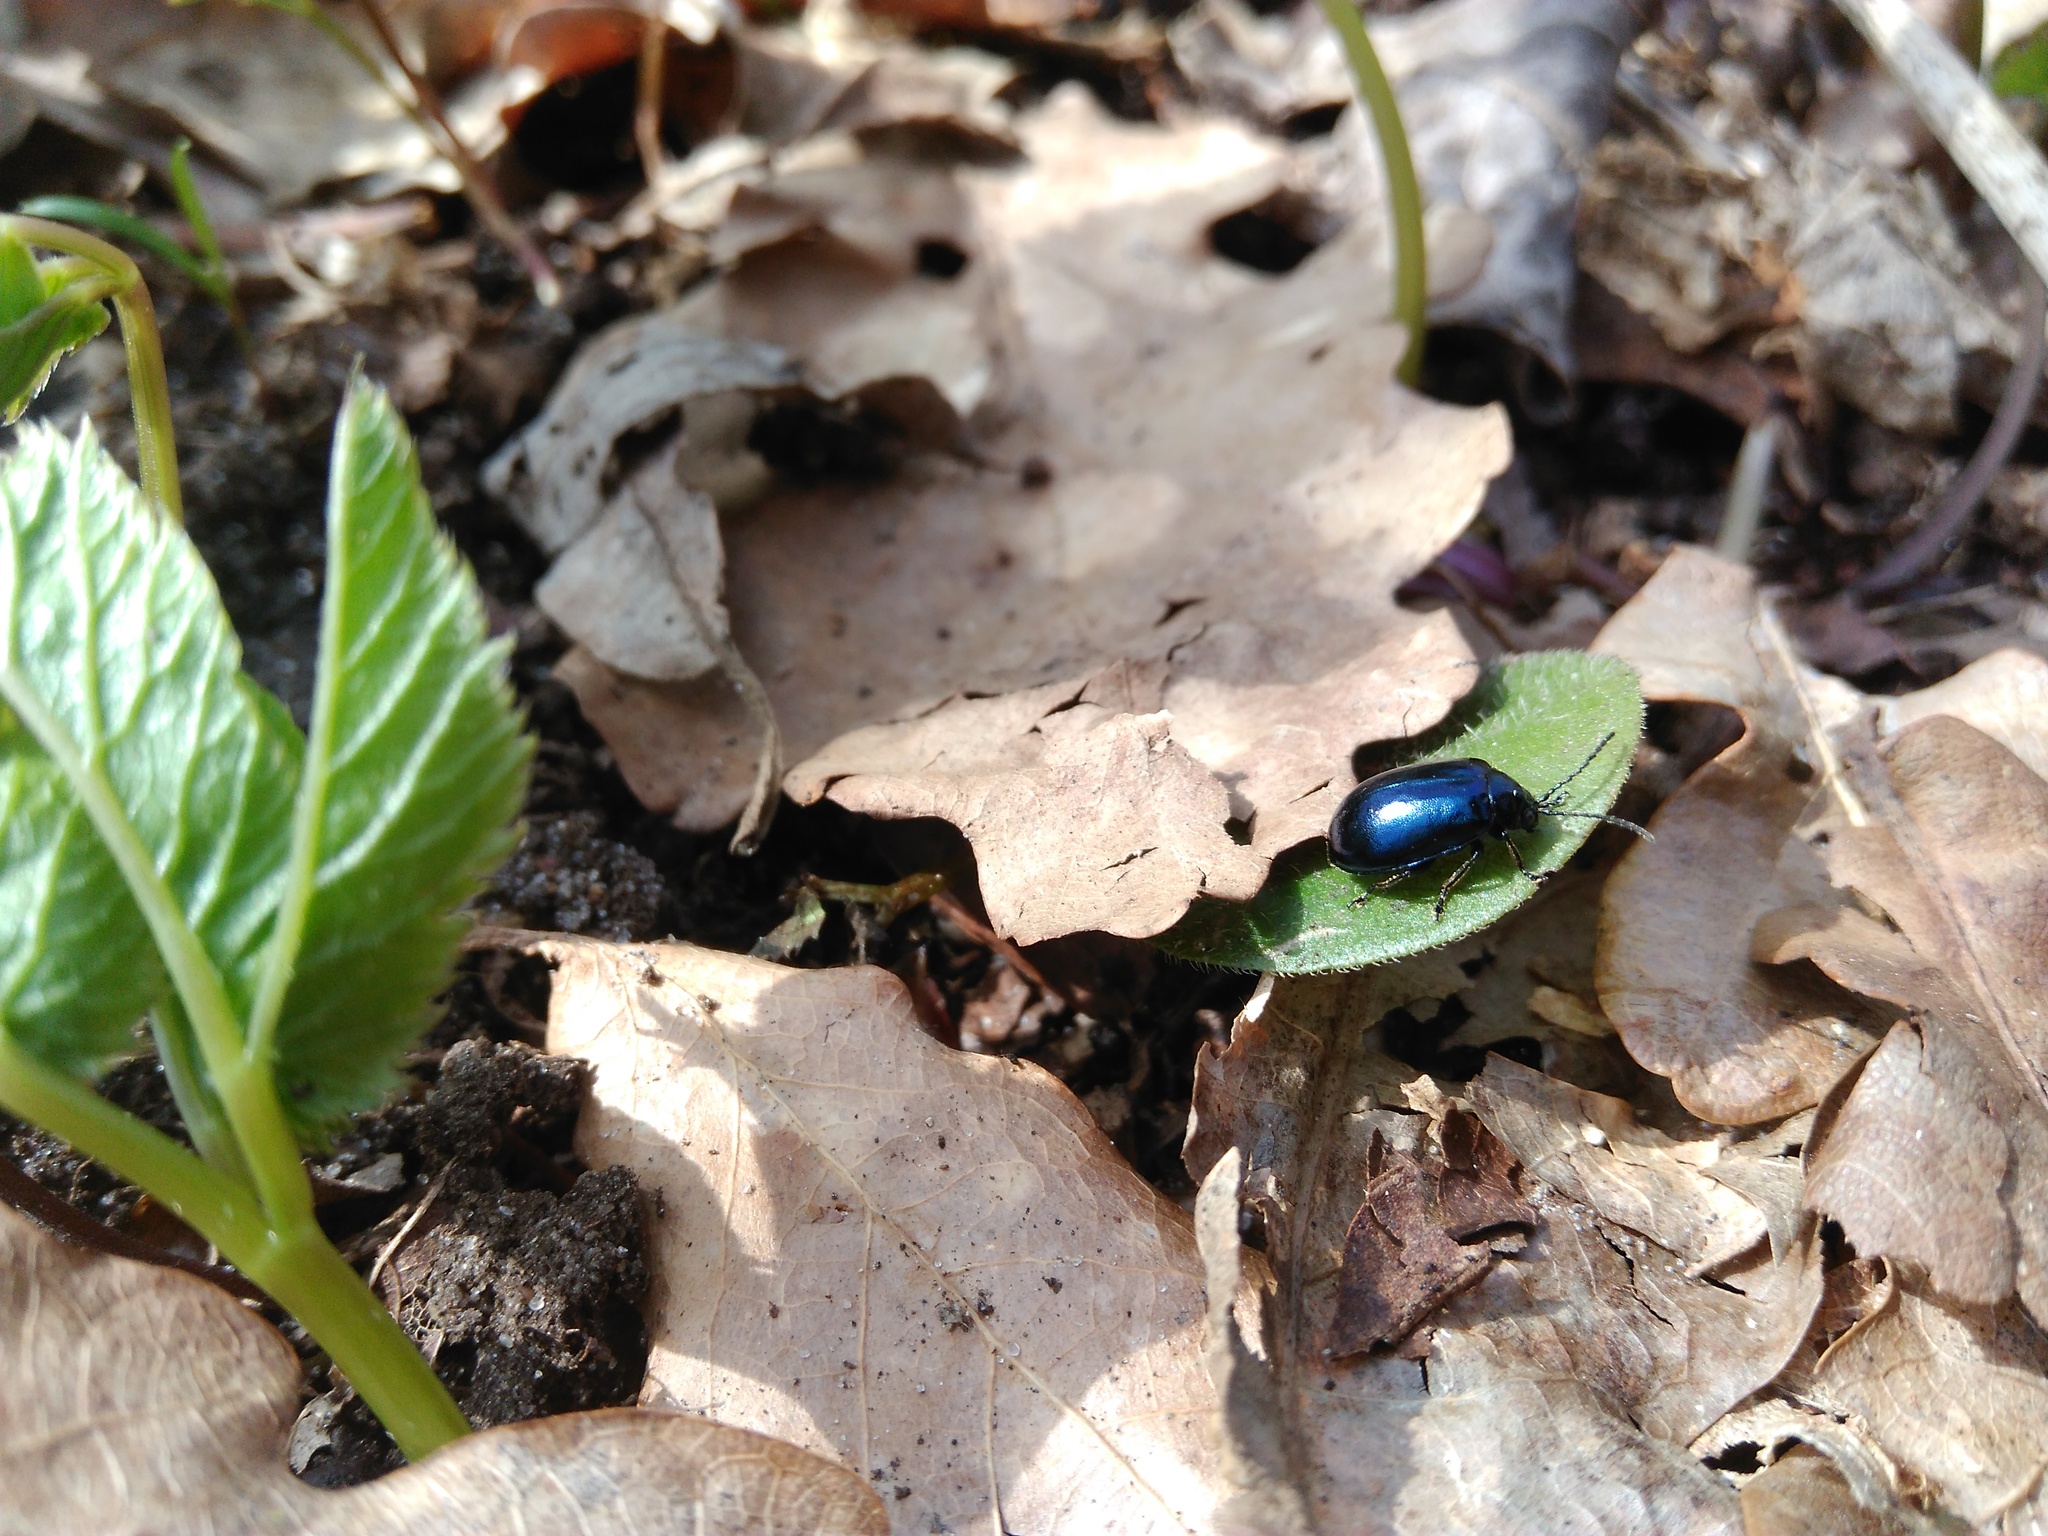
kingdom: Animalia
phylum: Arthropoda
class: Insecta
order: Coleoptera
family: Chrysomelidae
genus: Agelastica
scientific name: Agelastica alni
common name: Alder leaf beetle
